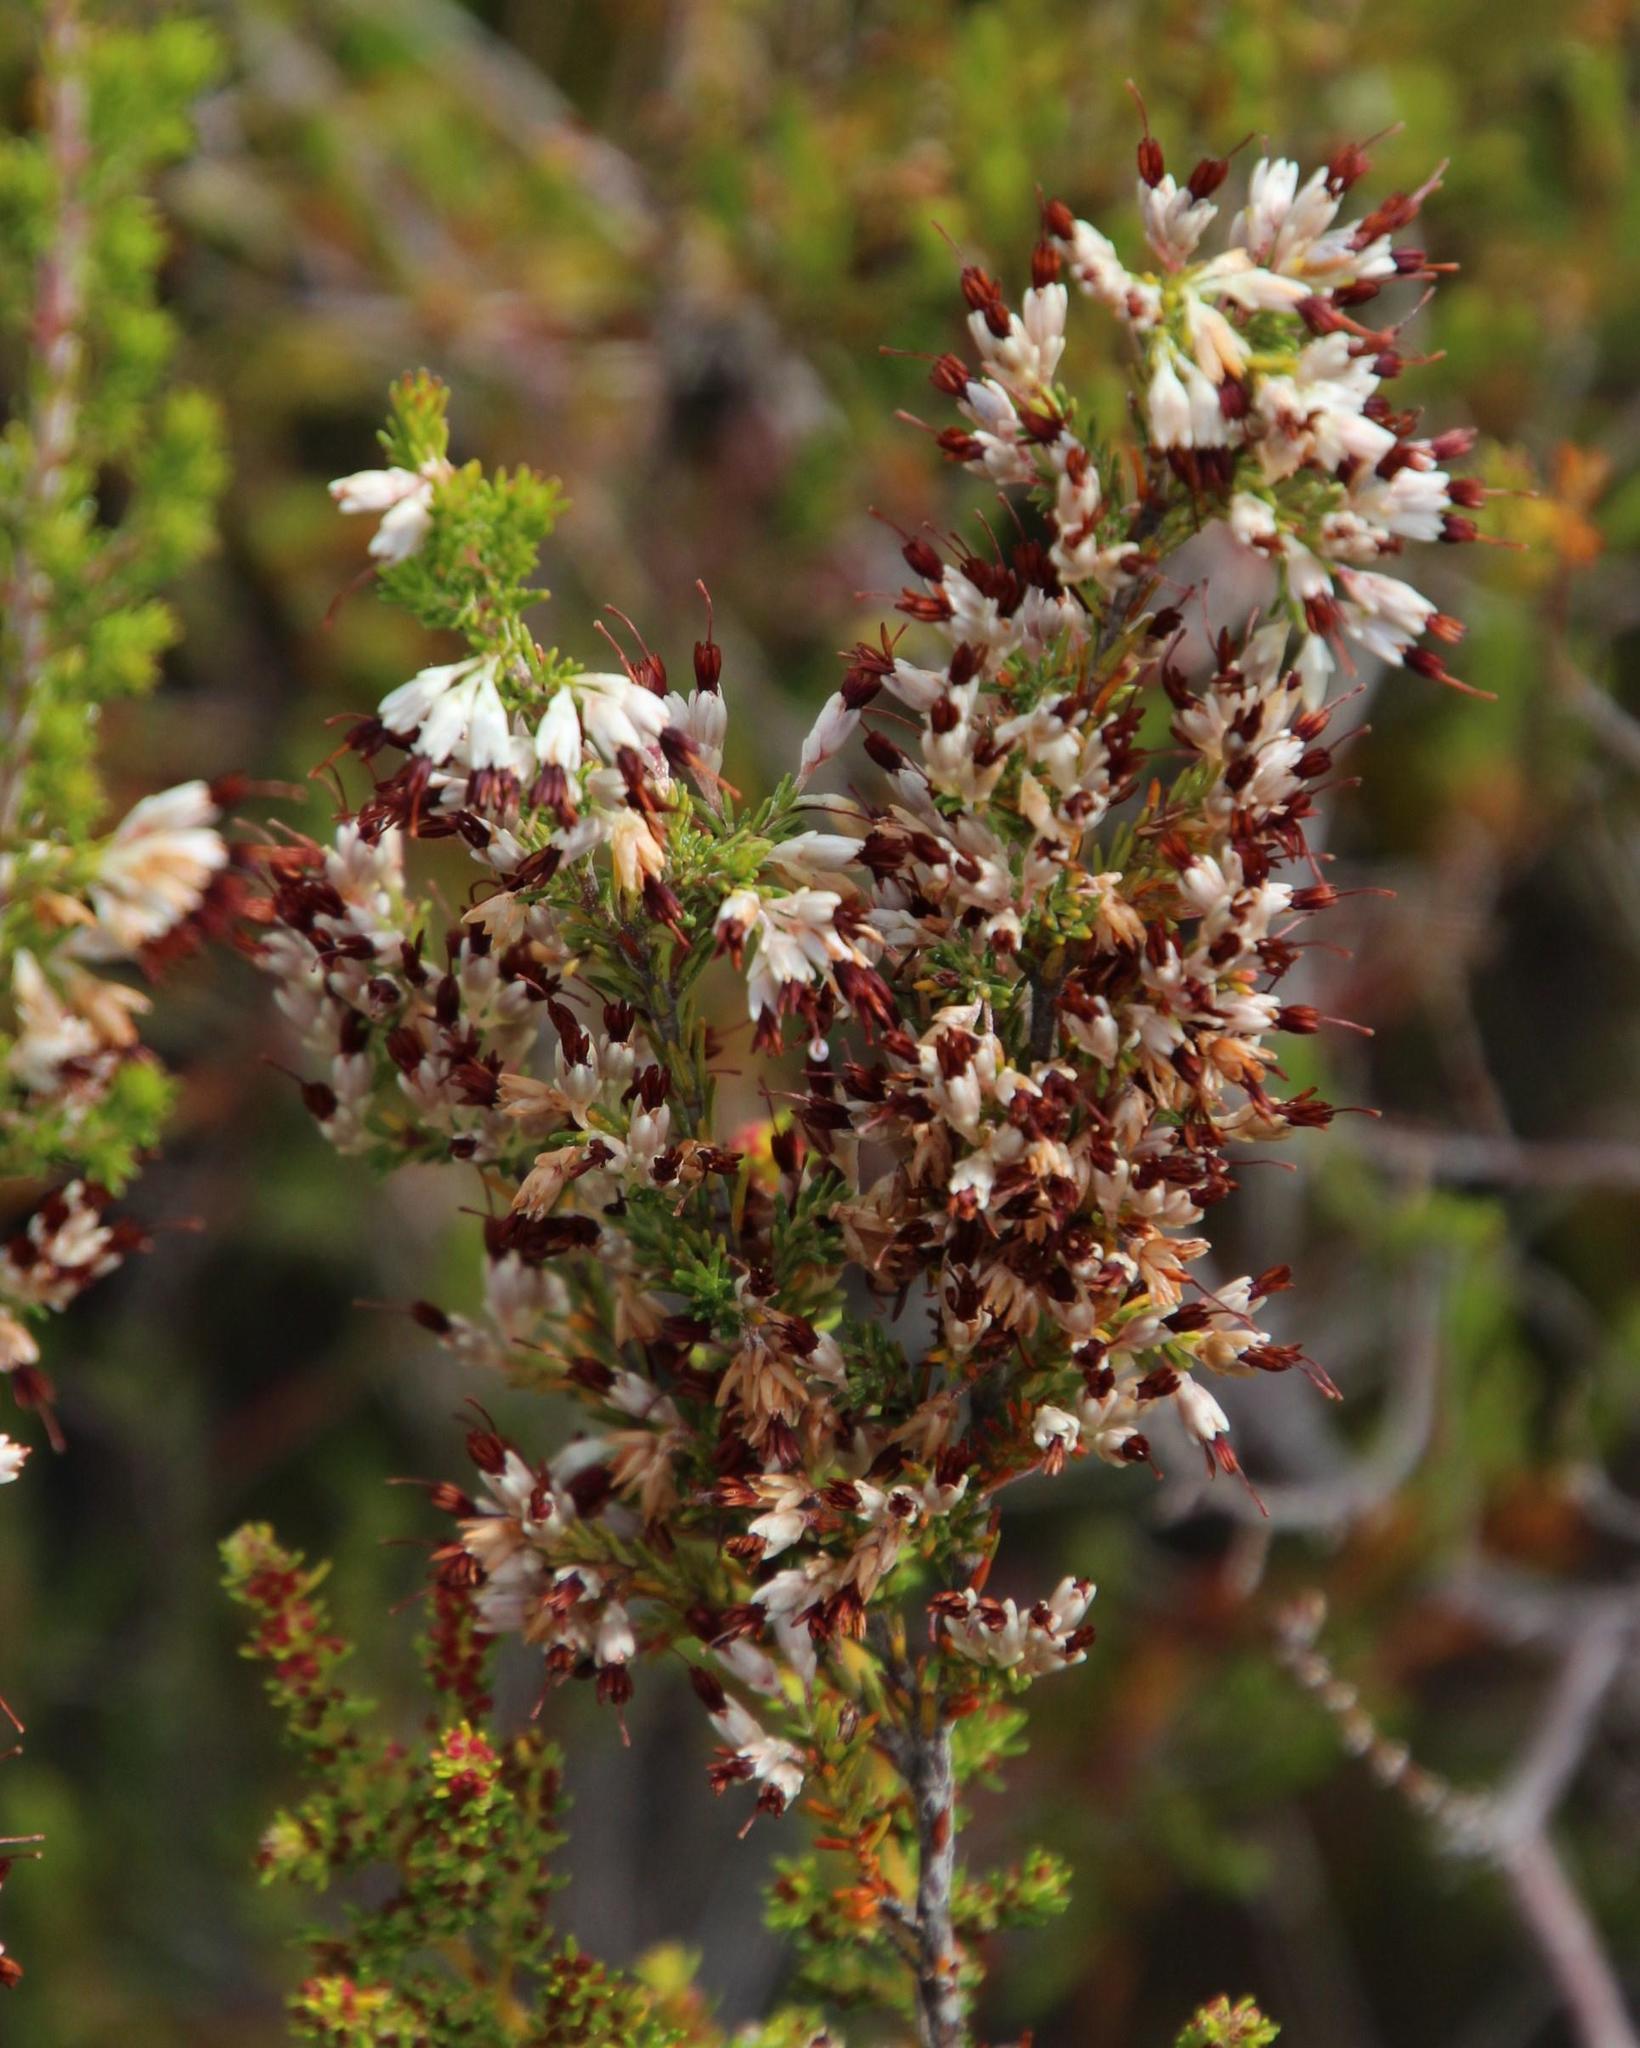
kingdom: Plantae
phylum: Tracheophyta
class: Magnoliopsida
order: Ericales
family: Ericaceae
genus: Erica
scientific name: Erica imbricata
